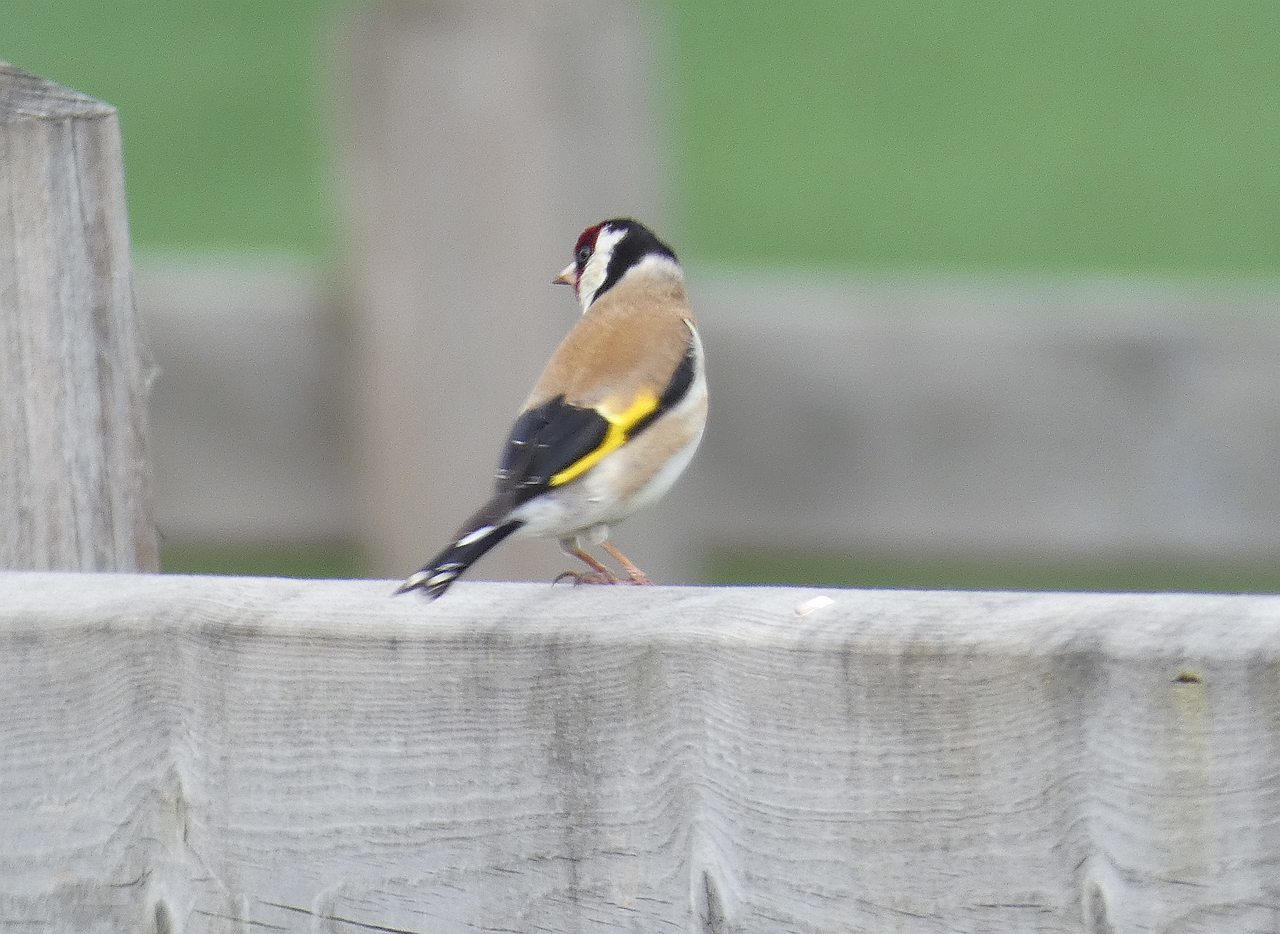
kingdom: Animalia
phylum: Chordata
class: Aves
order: Passeriformes
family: Fringillidae
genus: Carduelis
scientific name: Carduelis carduelis
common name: European goldfinch
